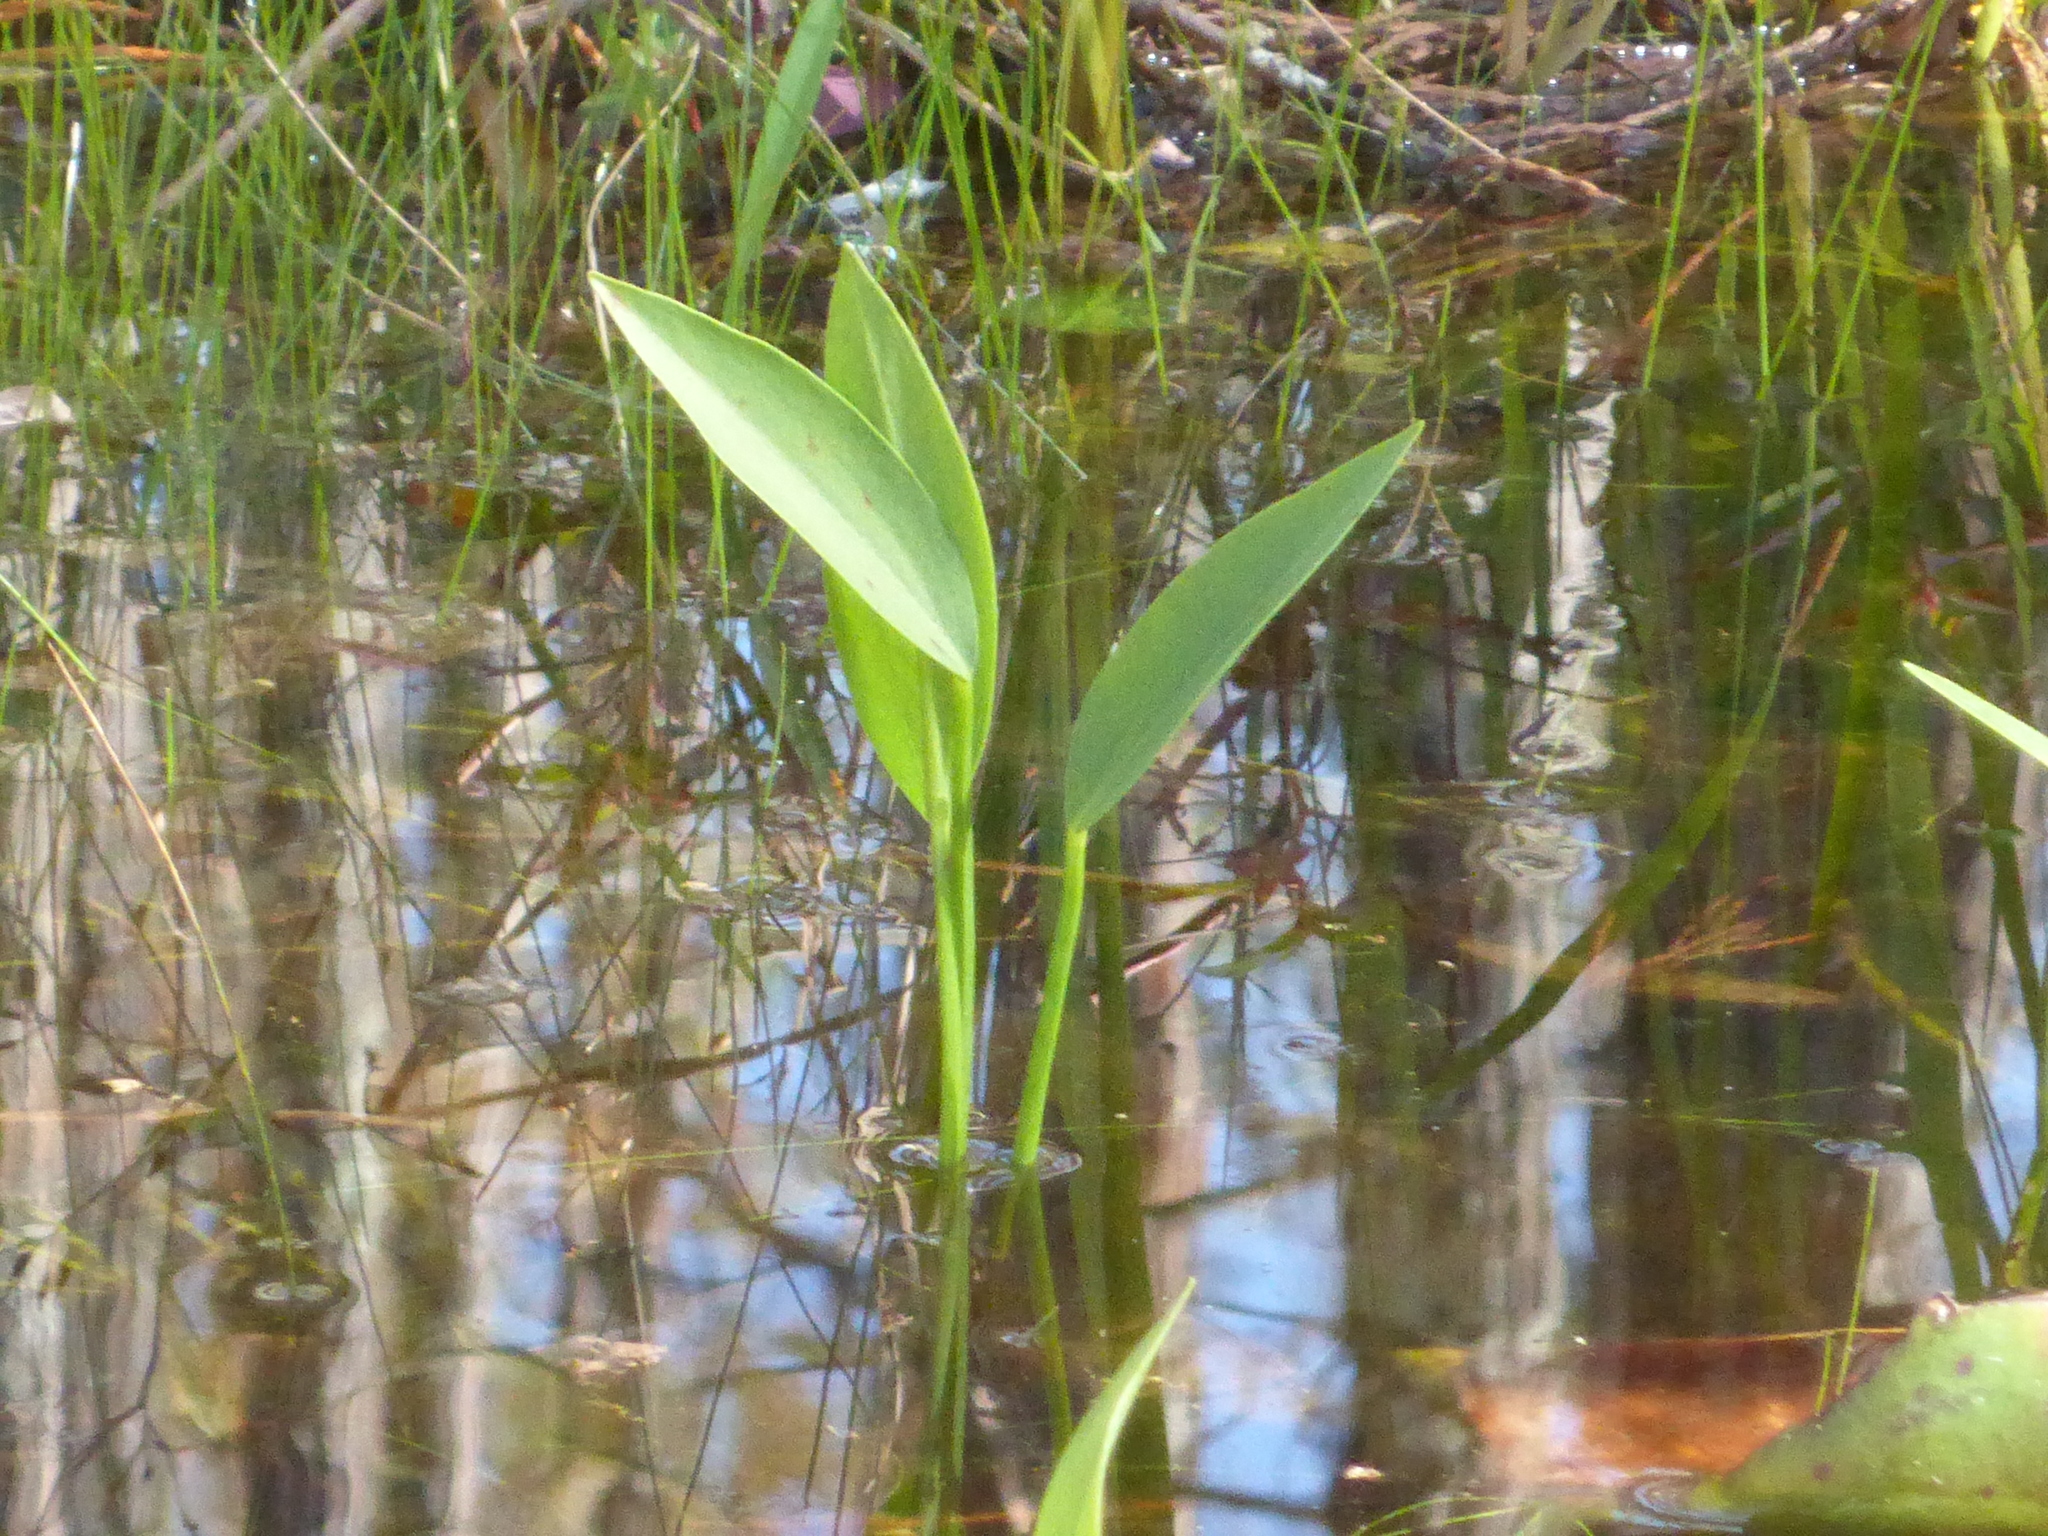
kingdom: Plantae
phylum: Tracheophyta
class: Liliopsida
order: Commelinales
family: Pontederiaceae
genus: Pontederia
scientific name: Pontederia cordata
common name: Pickerelweed
